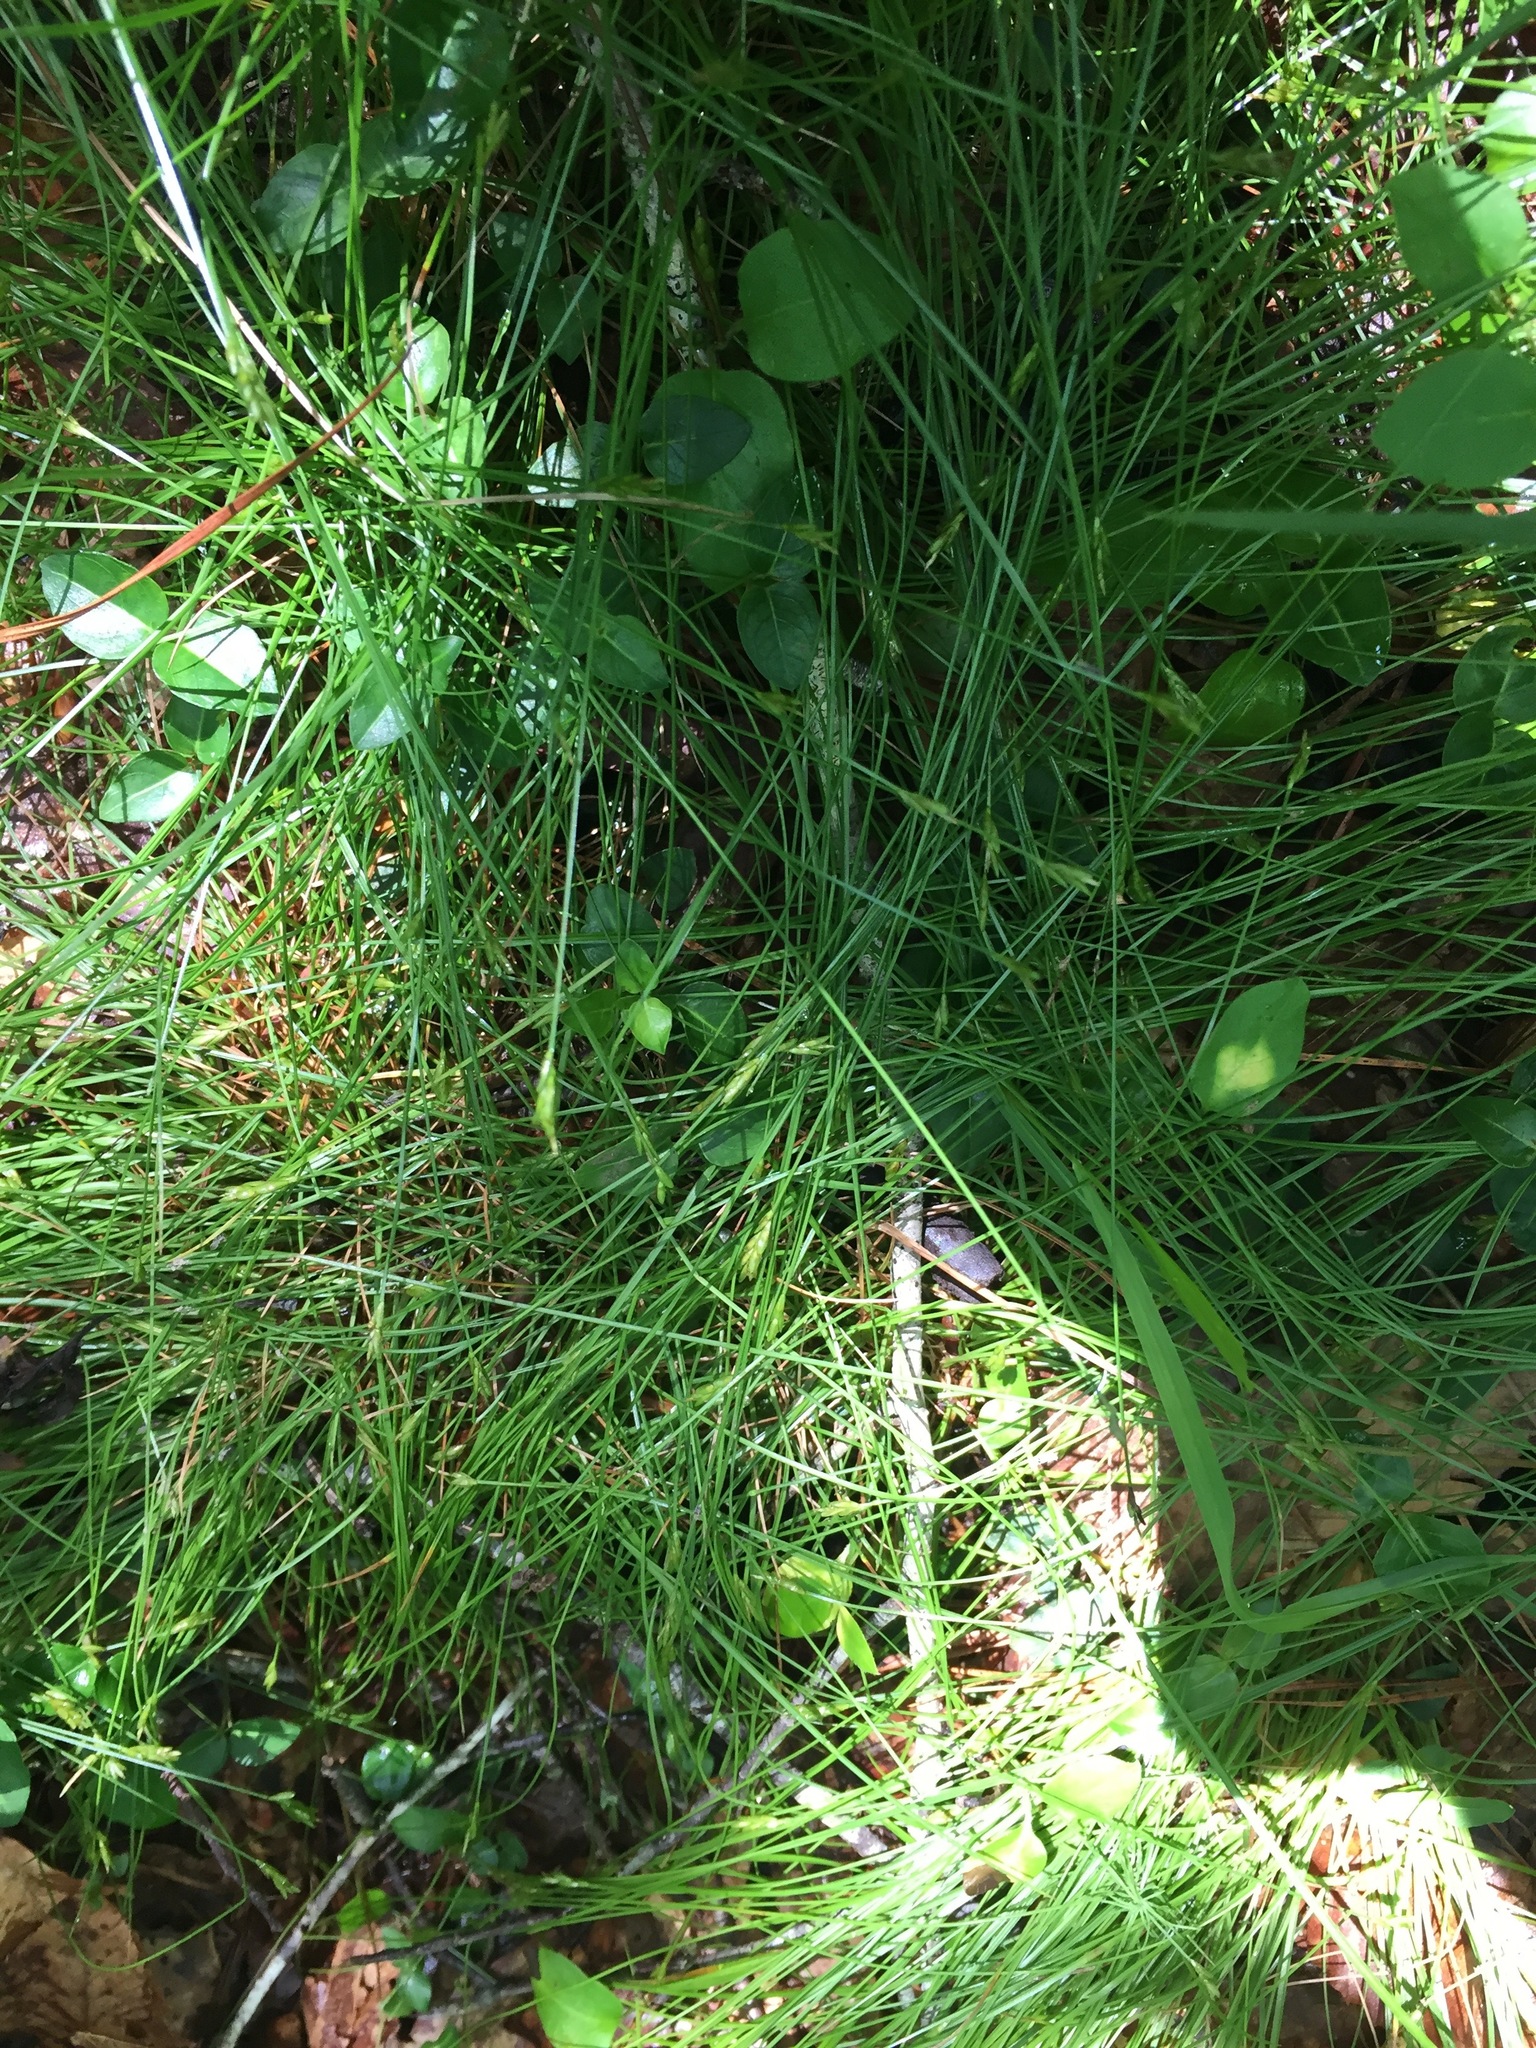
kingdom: Plantae
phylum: Tracheophyta
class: Liliopsida
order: Poales
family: Cyperaceae
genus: Carex
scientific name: Carex leptalea
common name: Bristly-stalked sedge
